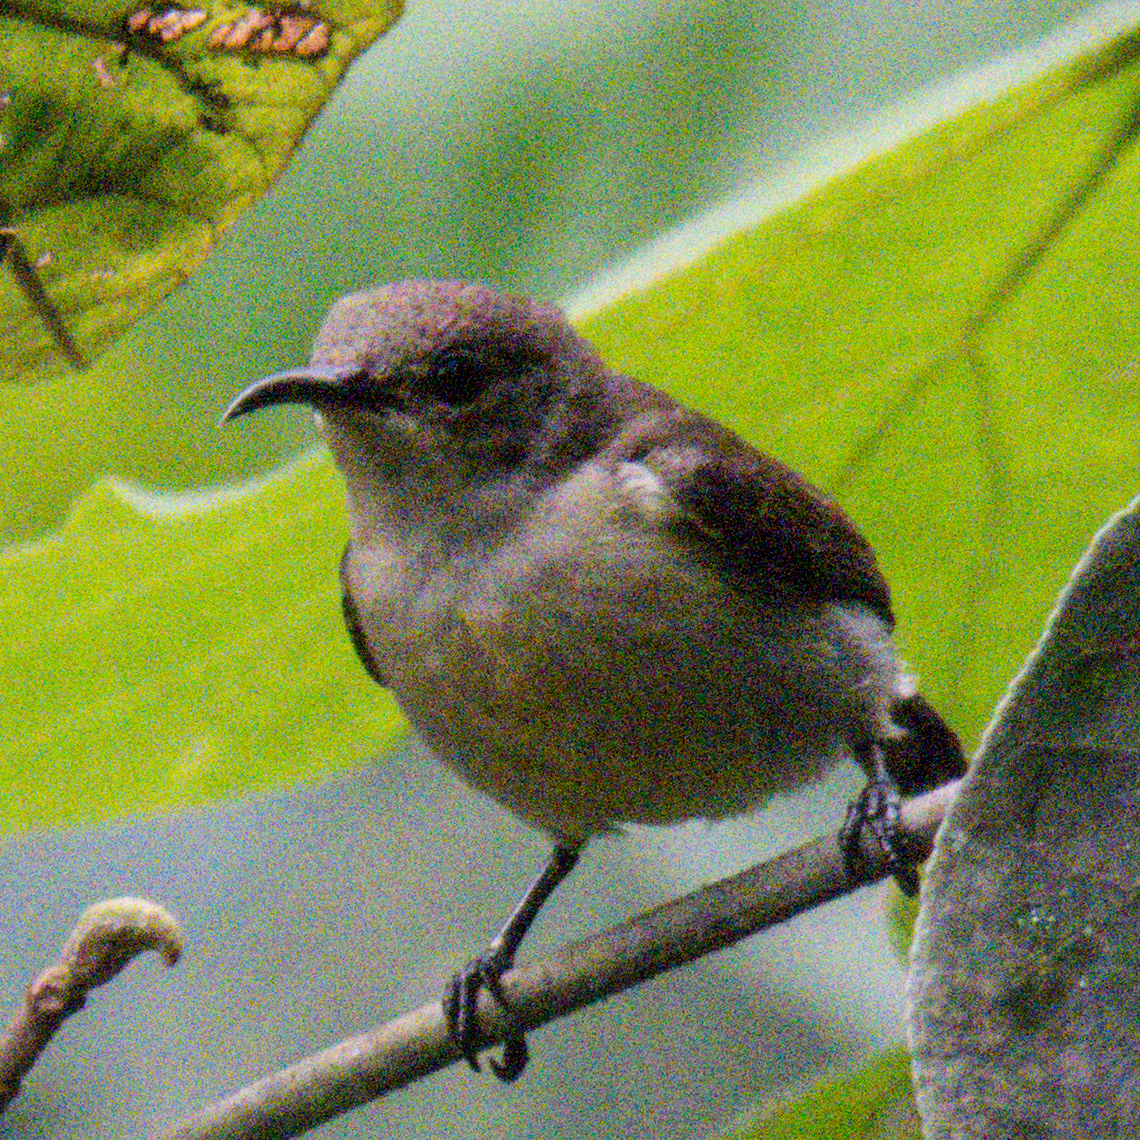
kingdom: Animalia
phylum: Chordata
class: Aves
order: Passeriformes
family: Nectariniidae
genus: Leptocoma
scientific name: Leptocoma brasiliana
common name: Van hasselt's sunbird
